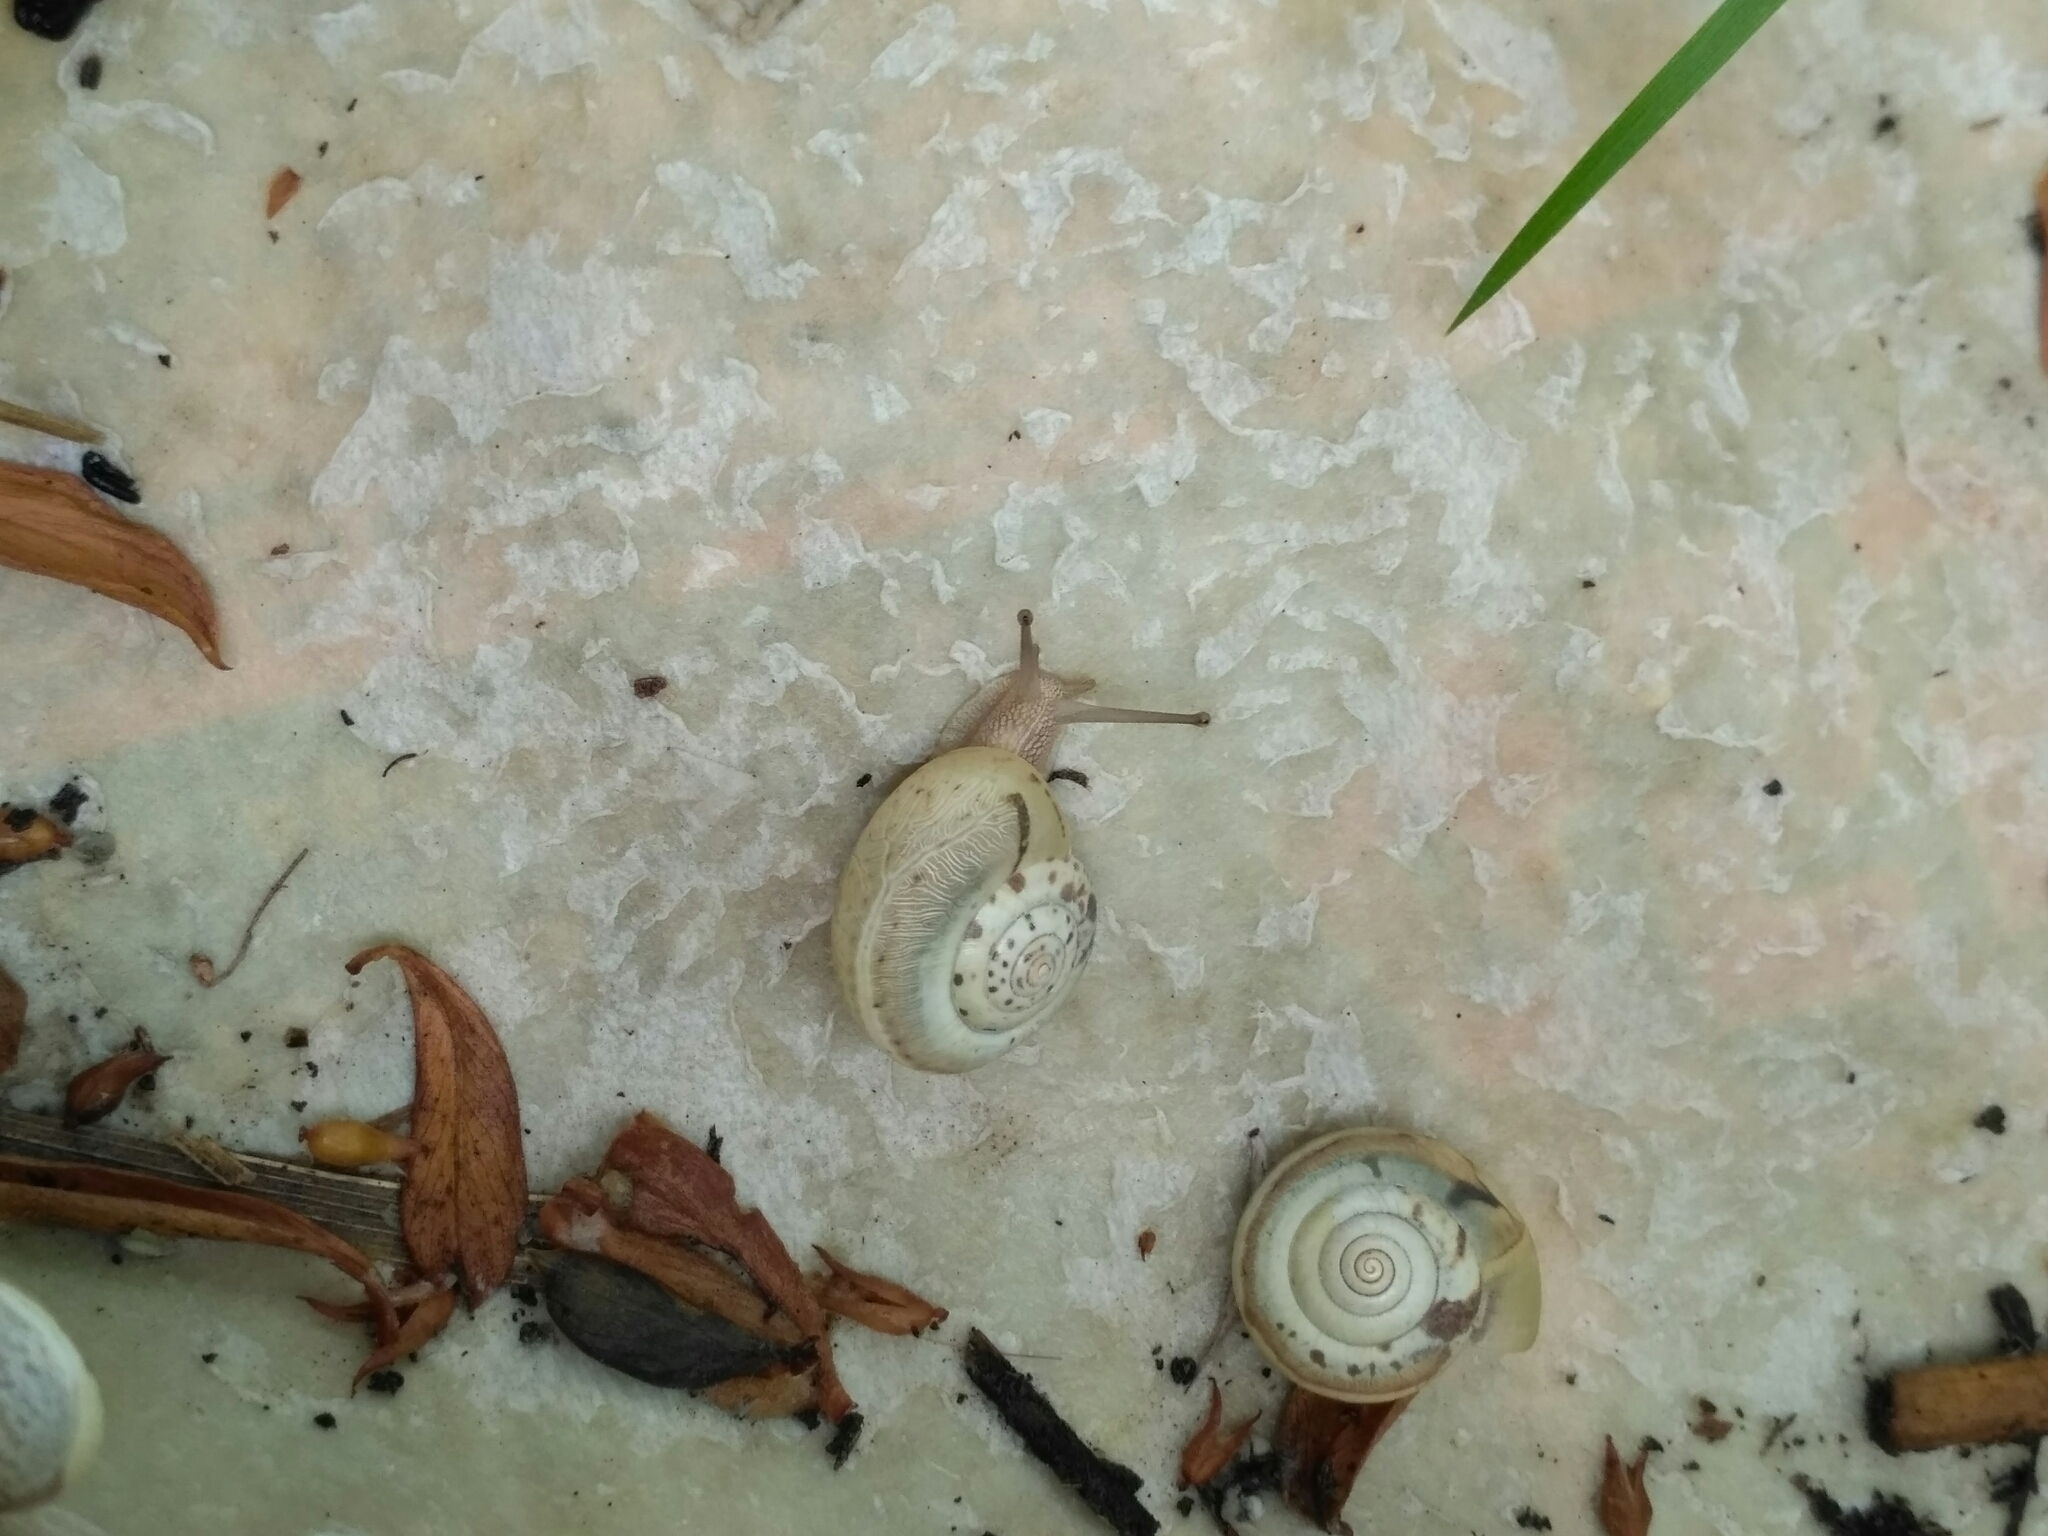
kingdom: Animalia
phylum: Mollusca
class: Gastropoda
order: Stylommatophora
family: Hygromiidae
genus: Monacha
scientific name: Monacha cartusiana
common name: Carthusian snail
